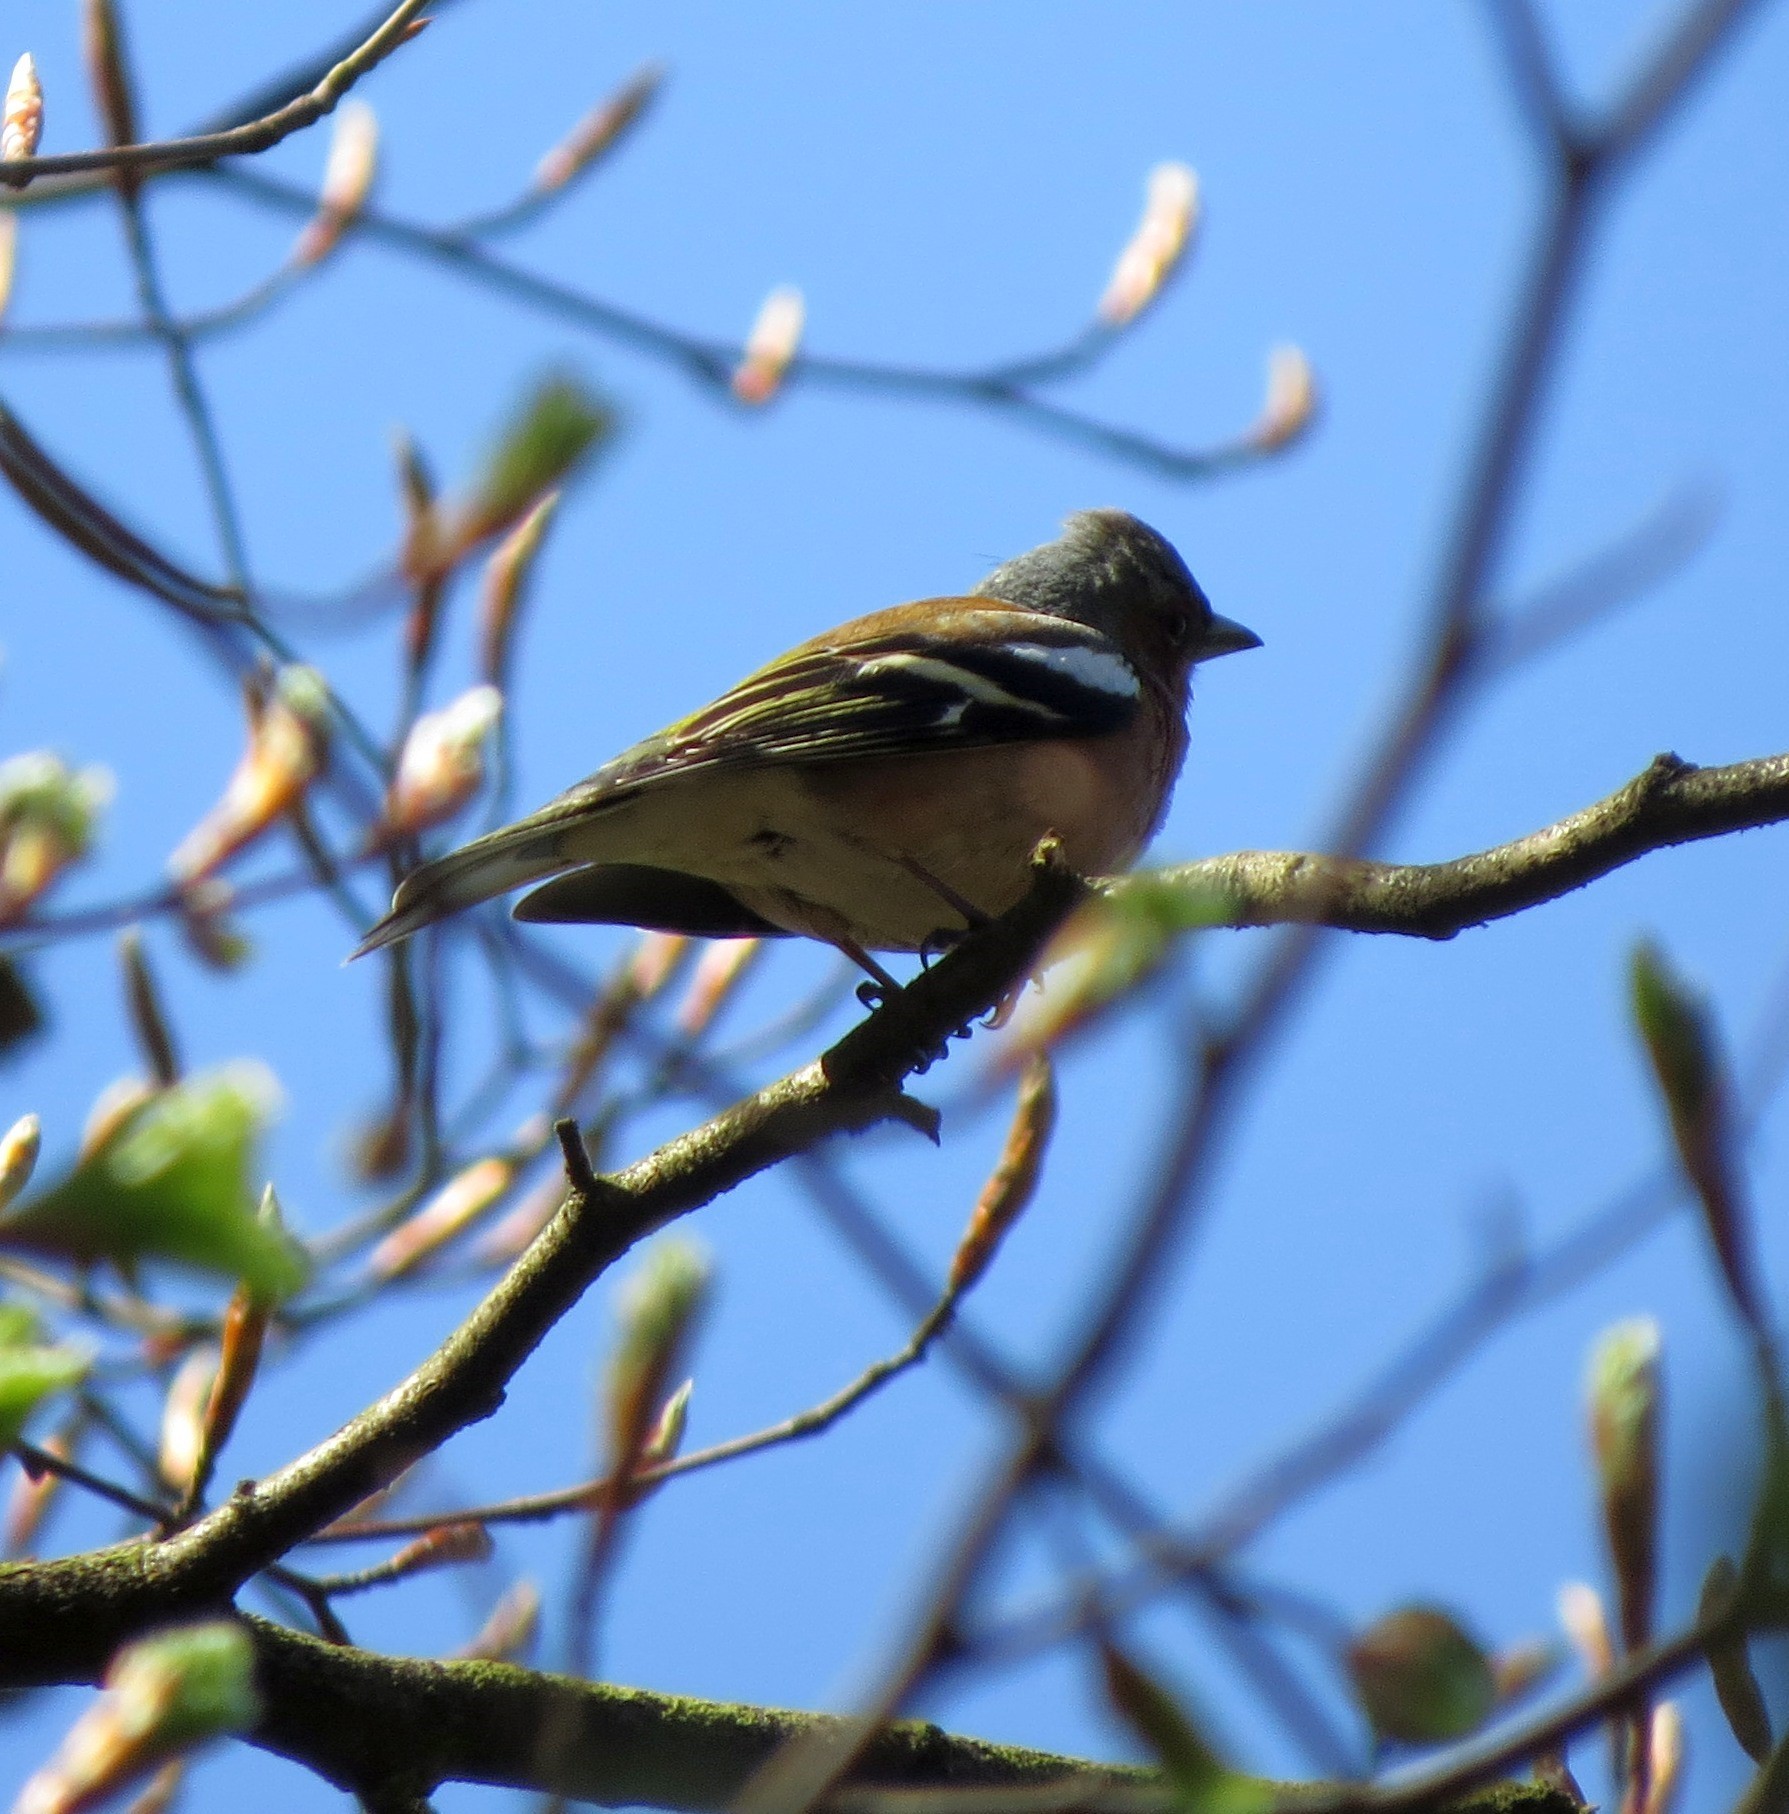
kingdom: Animalia
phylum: Chordata
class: Aves
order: Passeriformes
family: Fringillidae
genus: Fringilla
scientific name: Fringilla coelebs
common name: Common chaffinch
